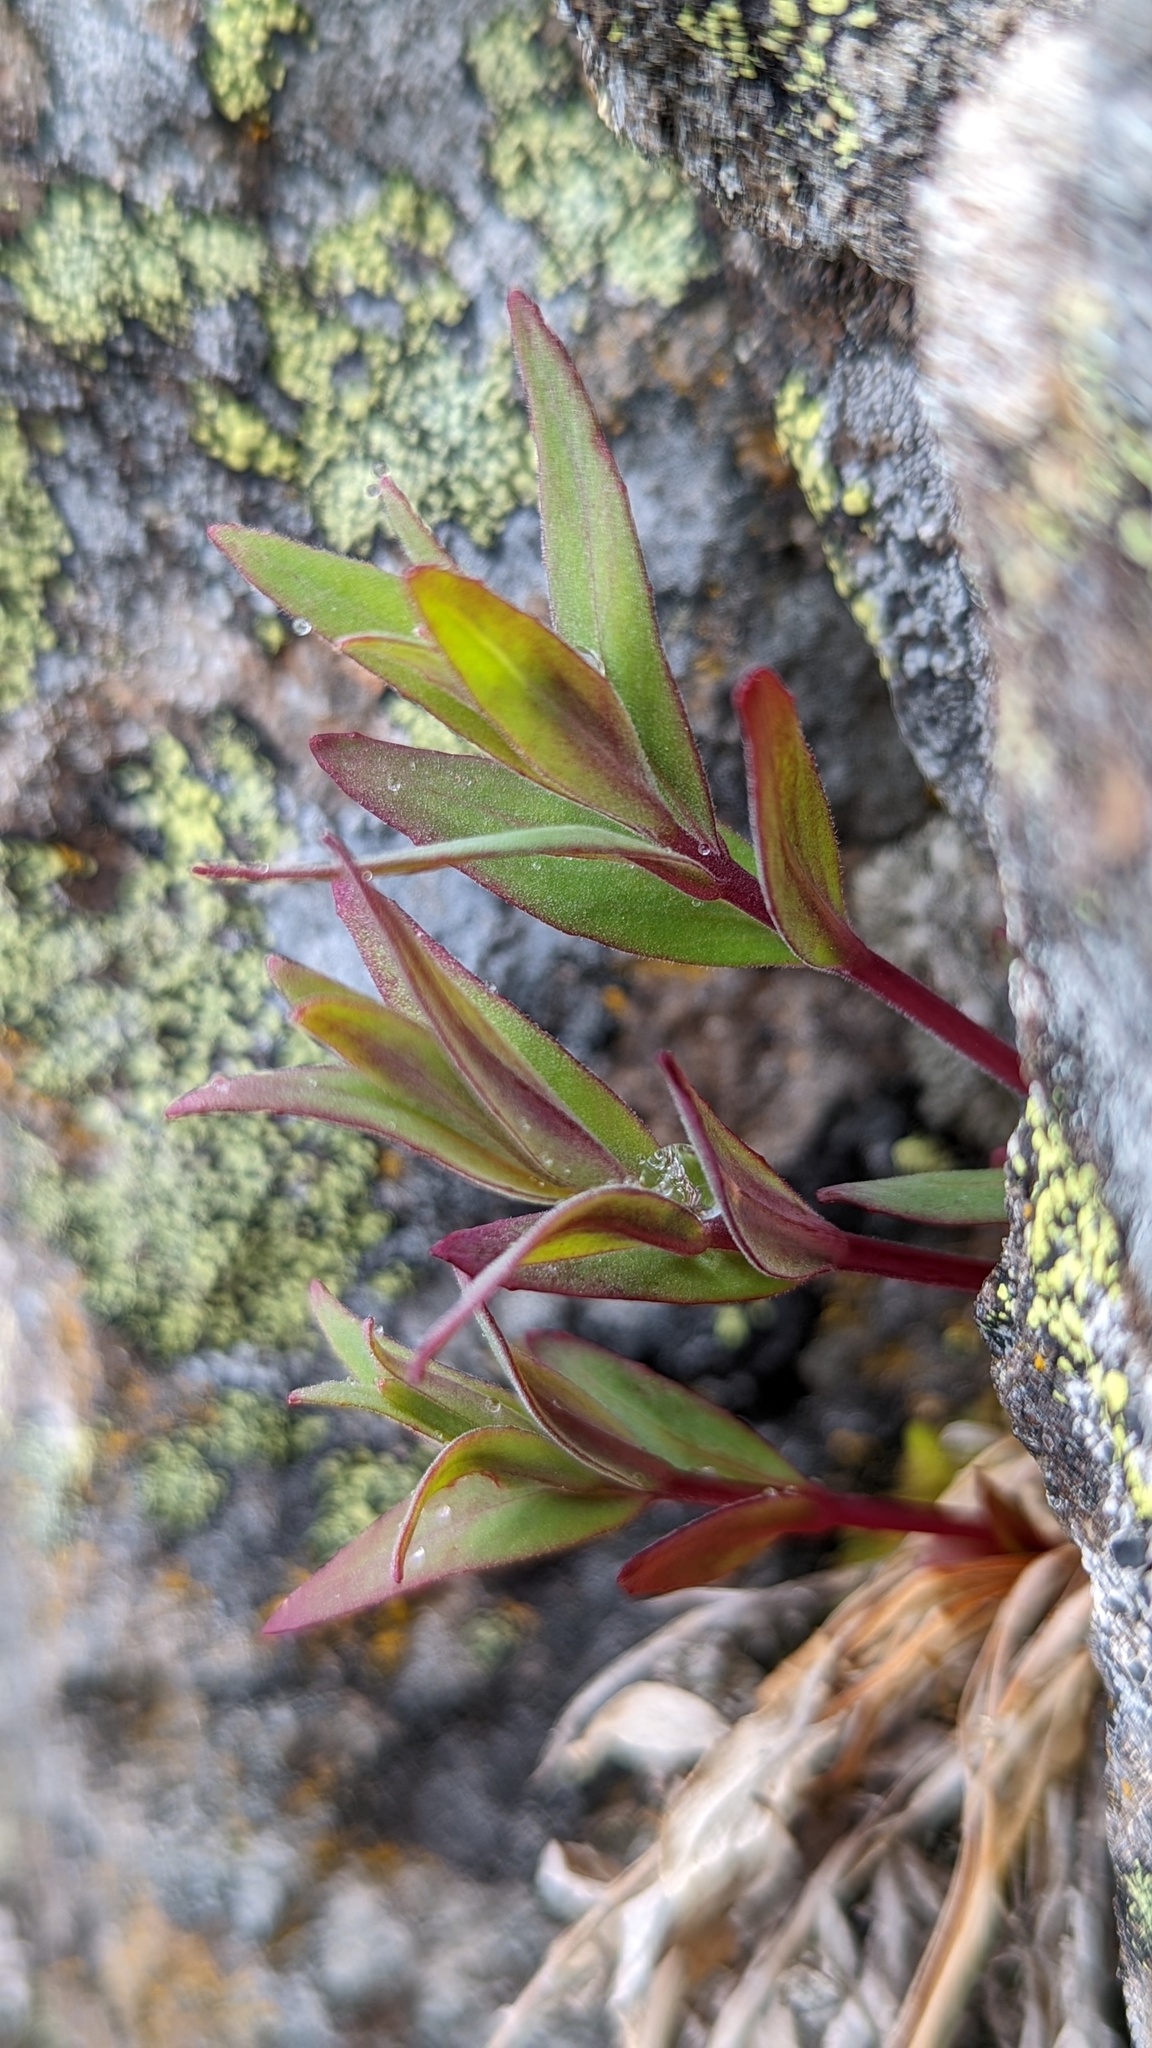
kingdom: Plantae
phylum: Tracheophyta
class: Magnoliopsida
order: Myrtales
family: Onagraceae
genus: Chamaenerion
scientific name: Chamaenerion latifolium
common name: Dwarf fireweed
